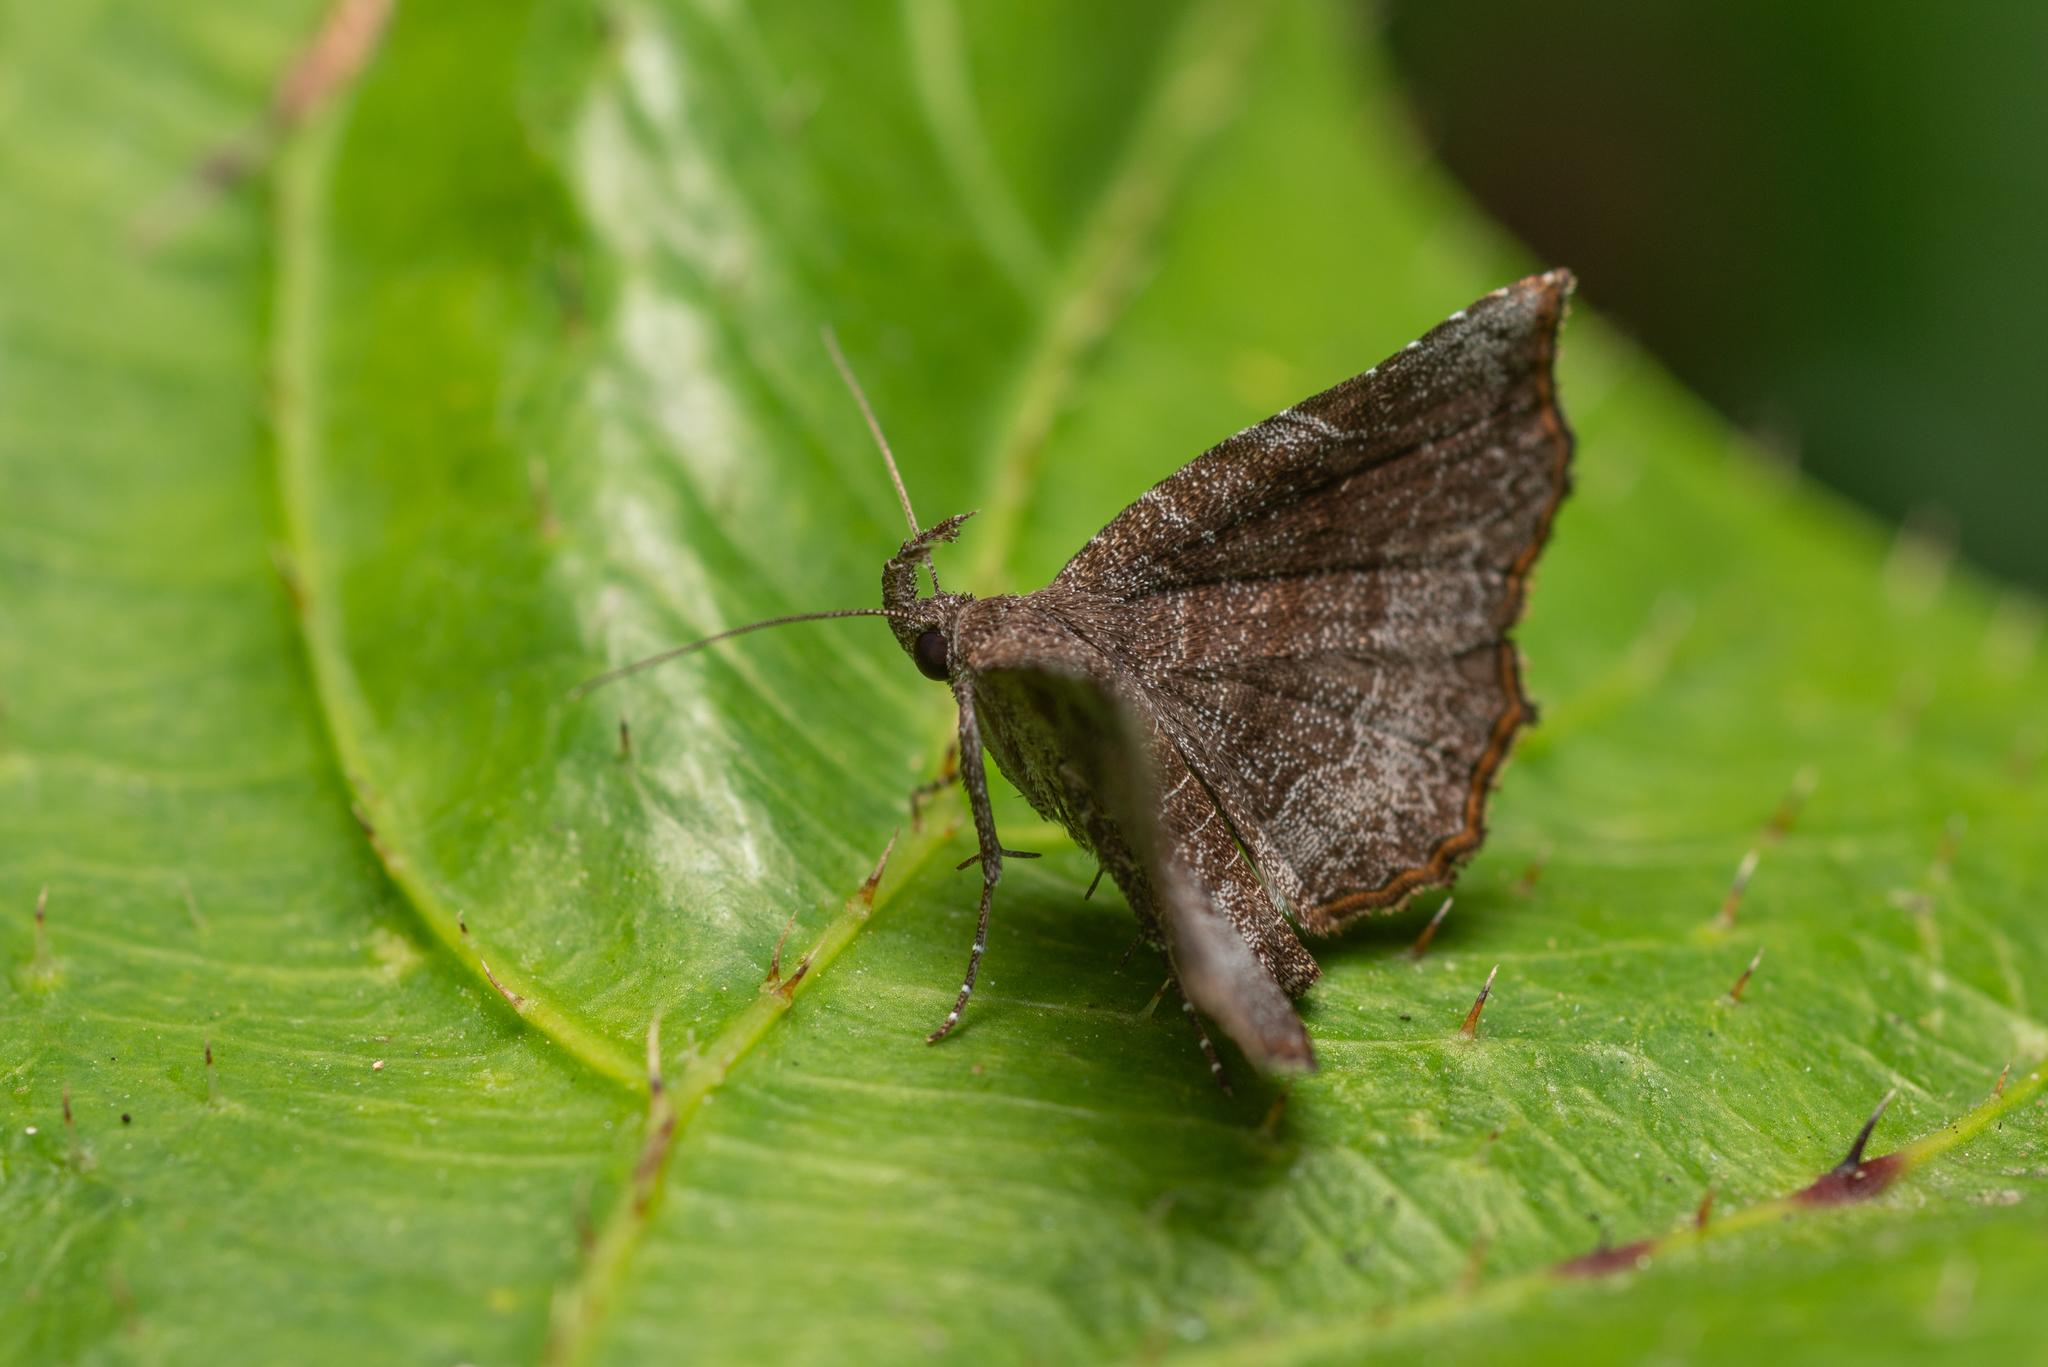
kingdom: Animalia
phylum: Arthropoda
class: Insecta
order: Lepidoptera
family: Erebidae
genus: Nagadeba
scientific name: Nagadeba indecoralis
